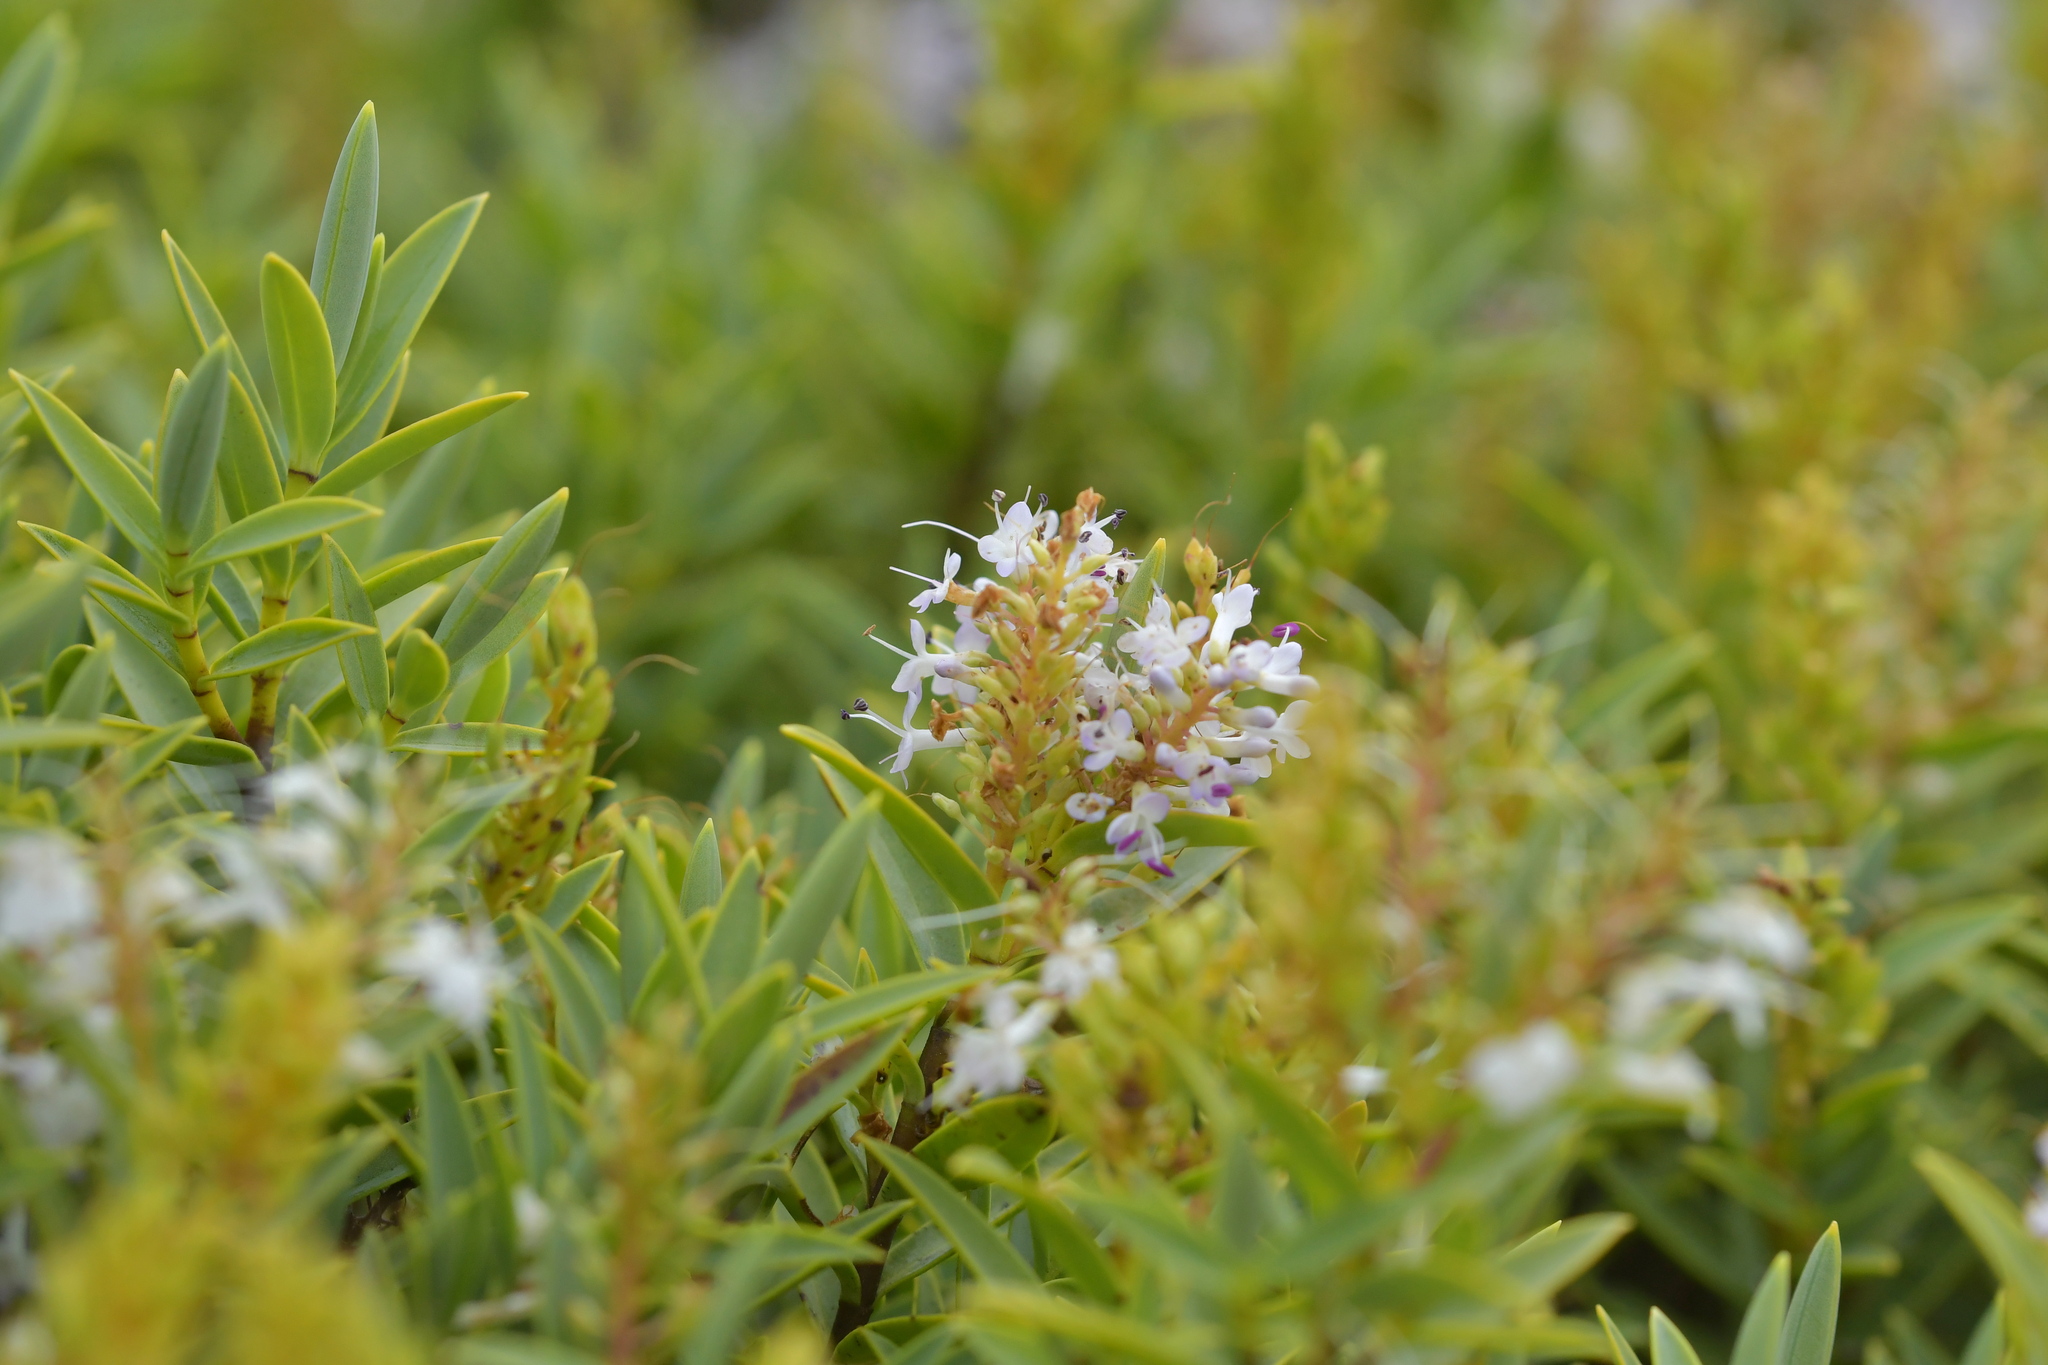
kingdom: Plantae
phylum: Tracheophyta
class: Magnoliopsida
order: Lamiales
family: Plantaginaceae
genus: Veronica
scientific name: Veronica albicans
